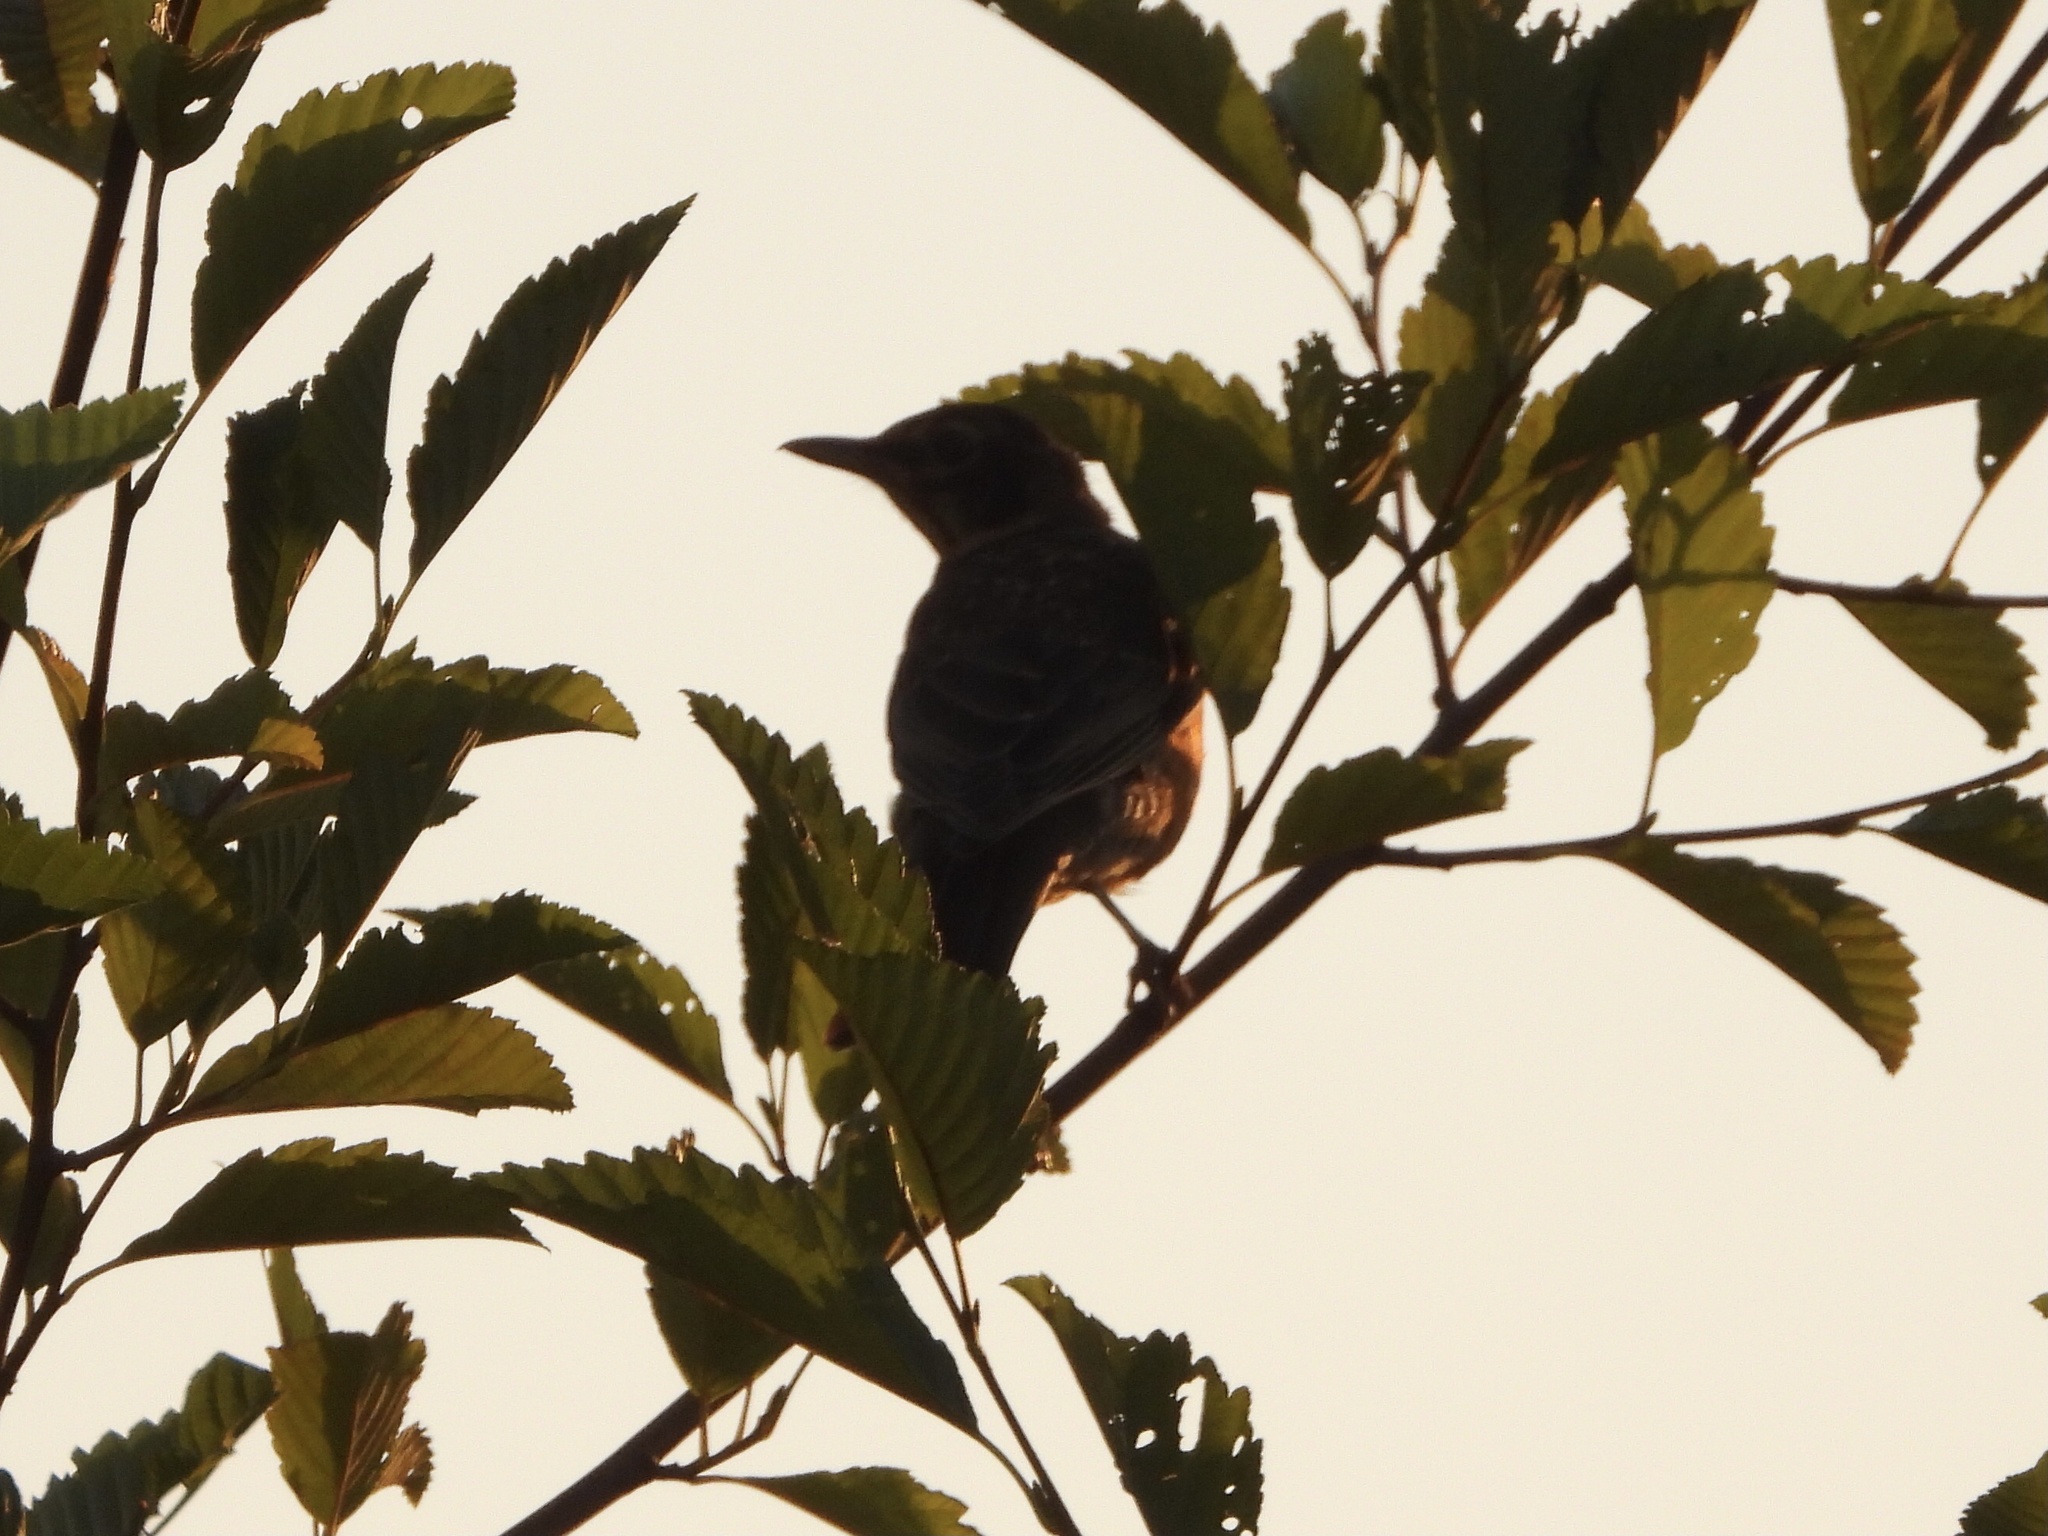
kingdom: Animalia
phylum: Chordata
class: Aves
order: Passeriformes
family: Turdidae
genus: Turdus
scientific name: Turdus migratorius
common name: American robin
